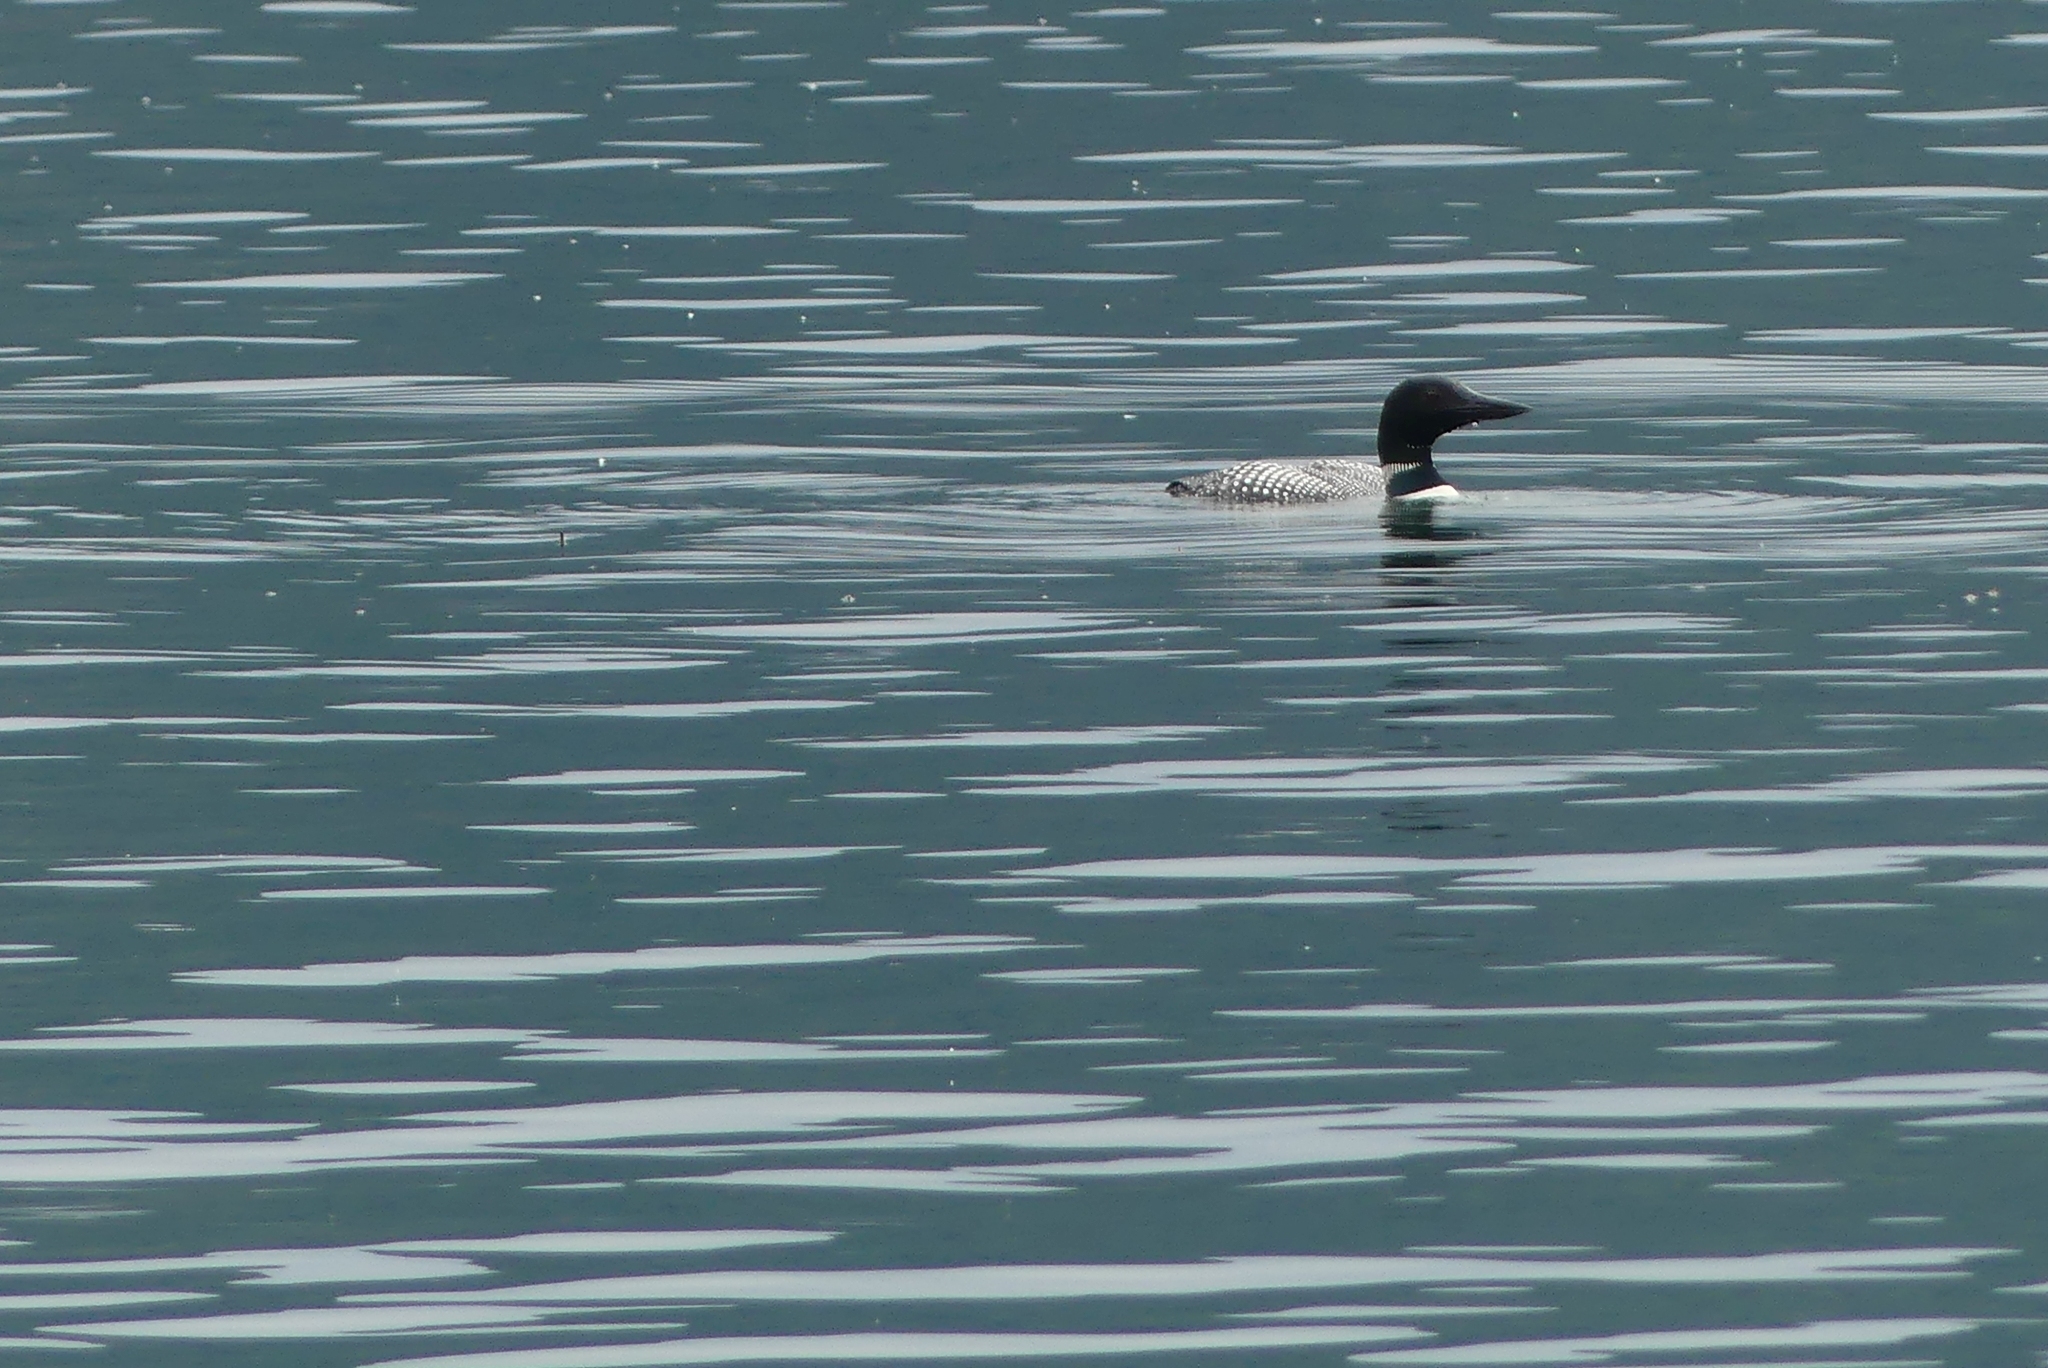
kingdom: Animalia
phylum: Chordata
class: Aves
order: Gaviiformes
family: Gaviidae
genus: Gavia
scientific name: Gavia immer
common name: Common loon
